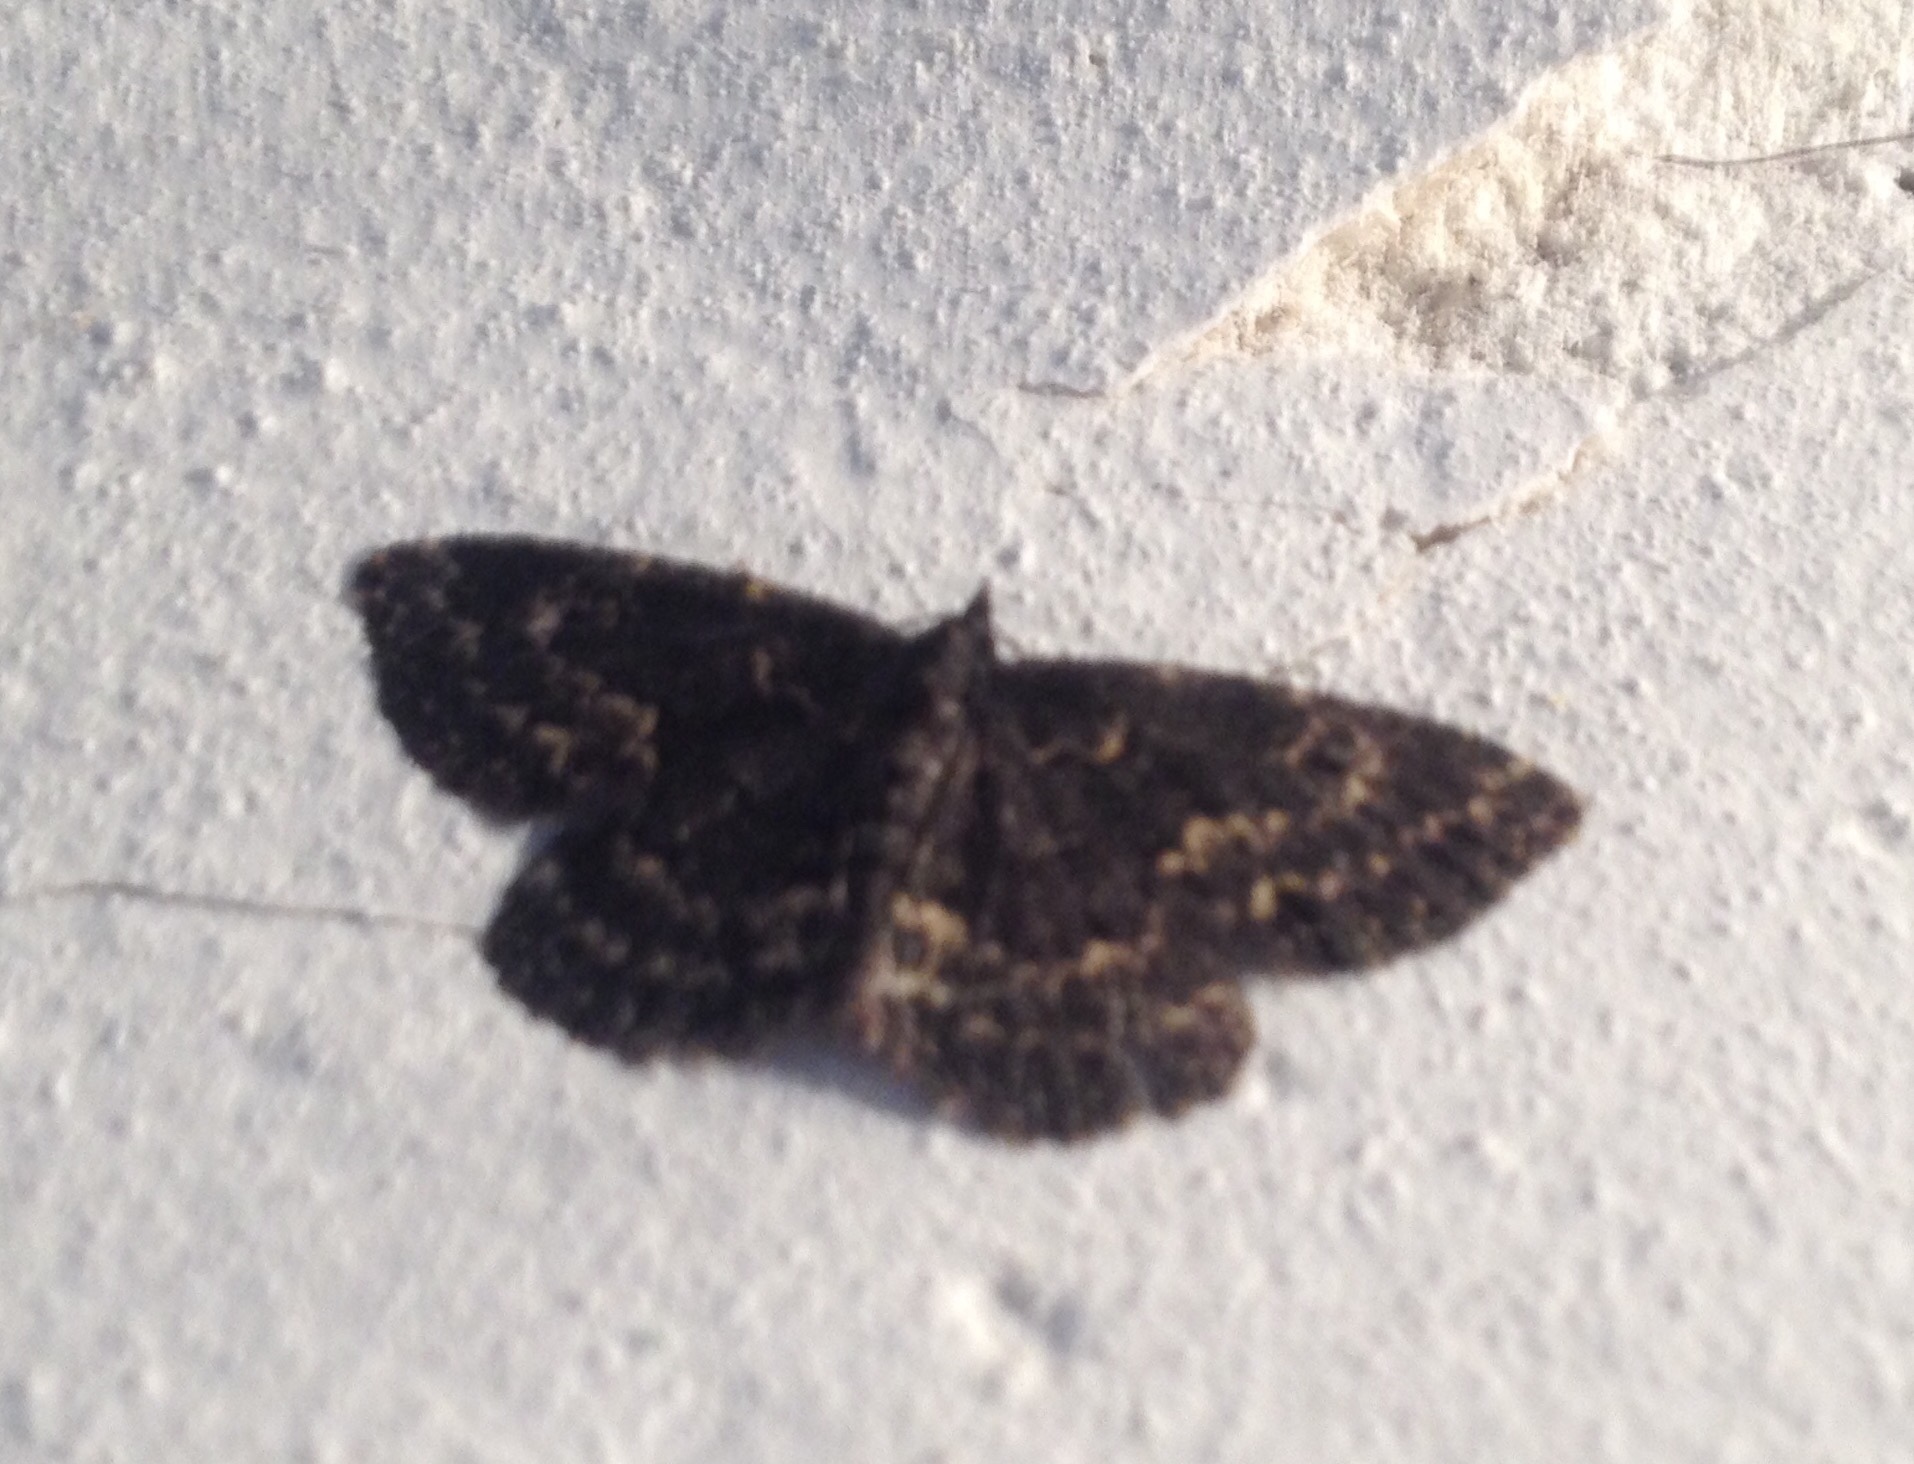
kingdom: Animalia
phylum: Arthropoda
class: Insecta
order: Lepidoptera
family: Erebidae
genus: Parascotia
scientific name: Parascotia fuliginaria
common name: Waved black
